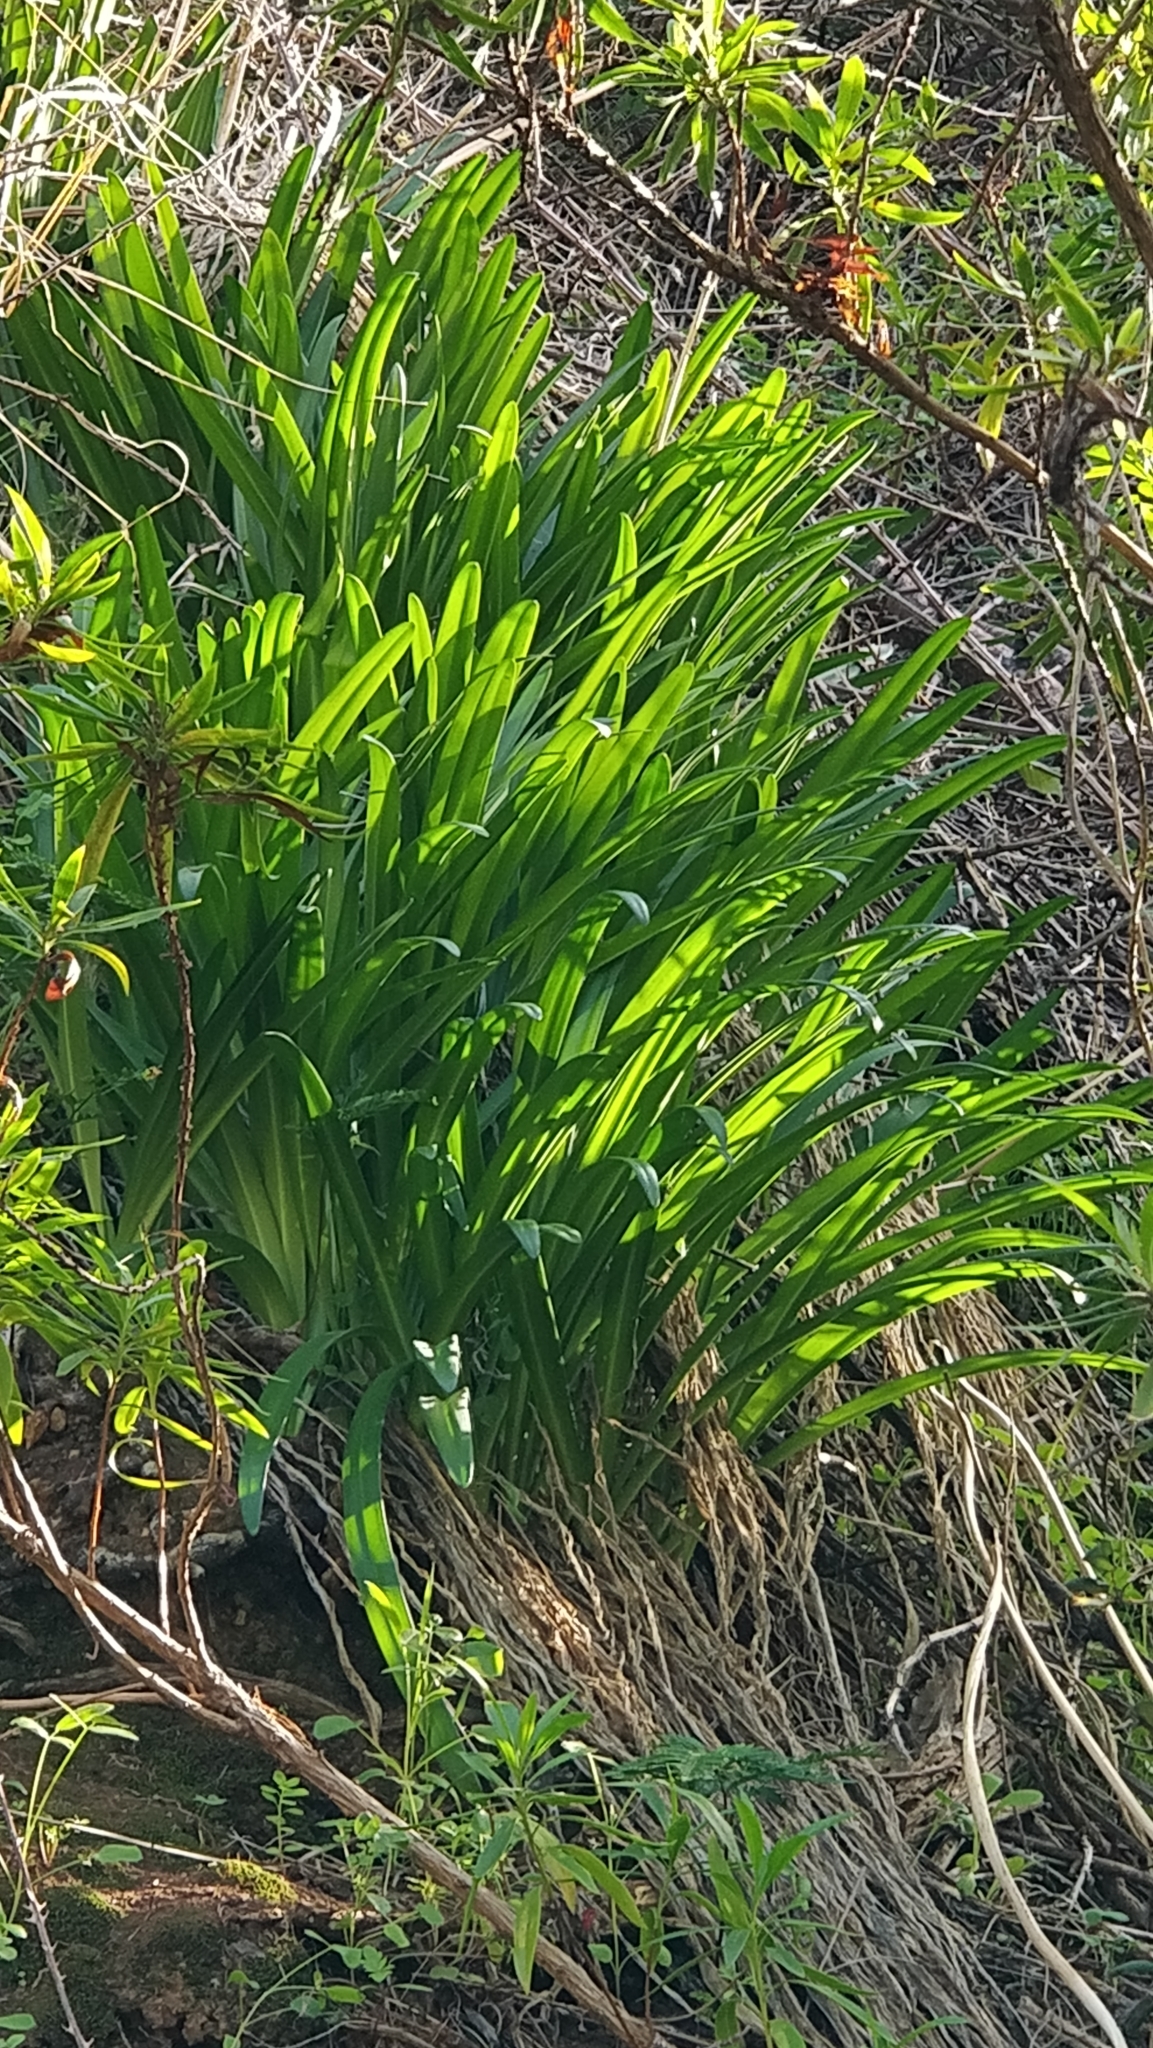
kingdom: Plantae
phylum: Tracheophyta
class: Liliopsida
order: Asparagales
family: Amaryllidaceae
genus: Agapanthus
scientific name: Agapanthus praecox
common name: African-lily
